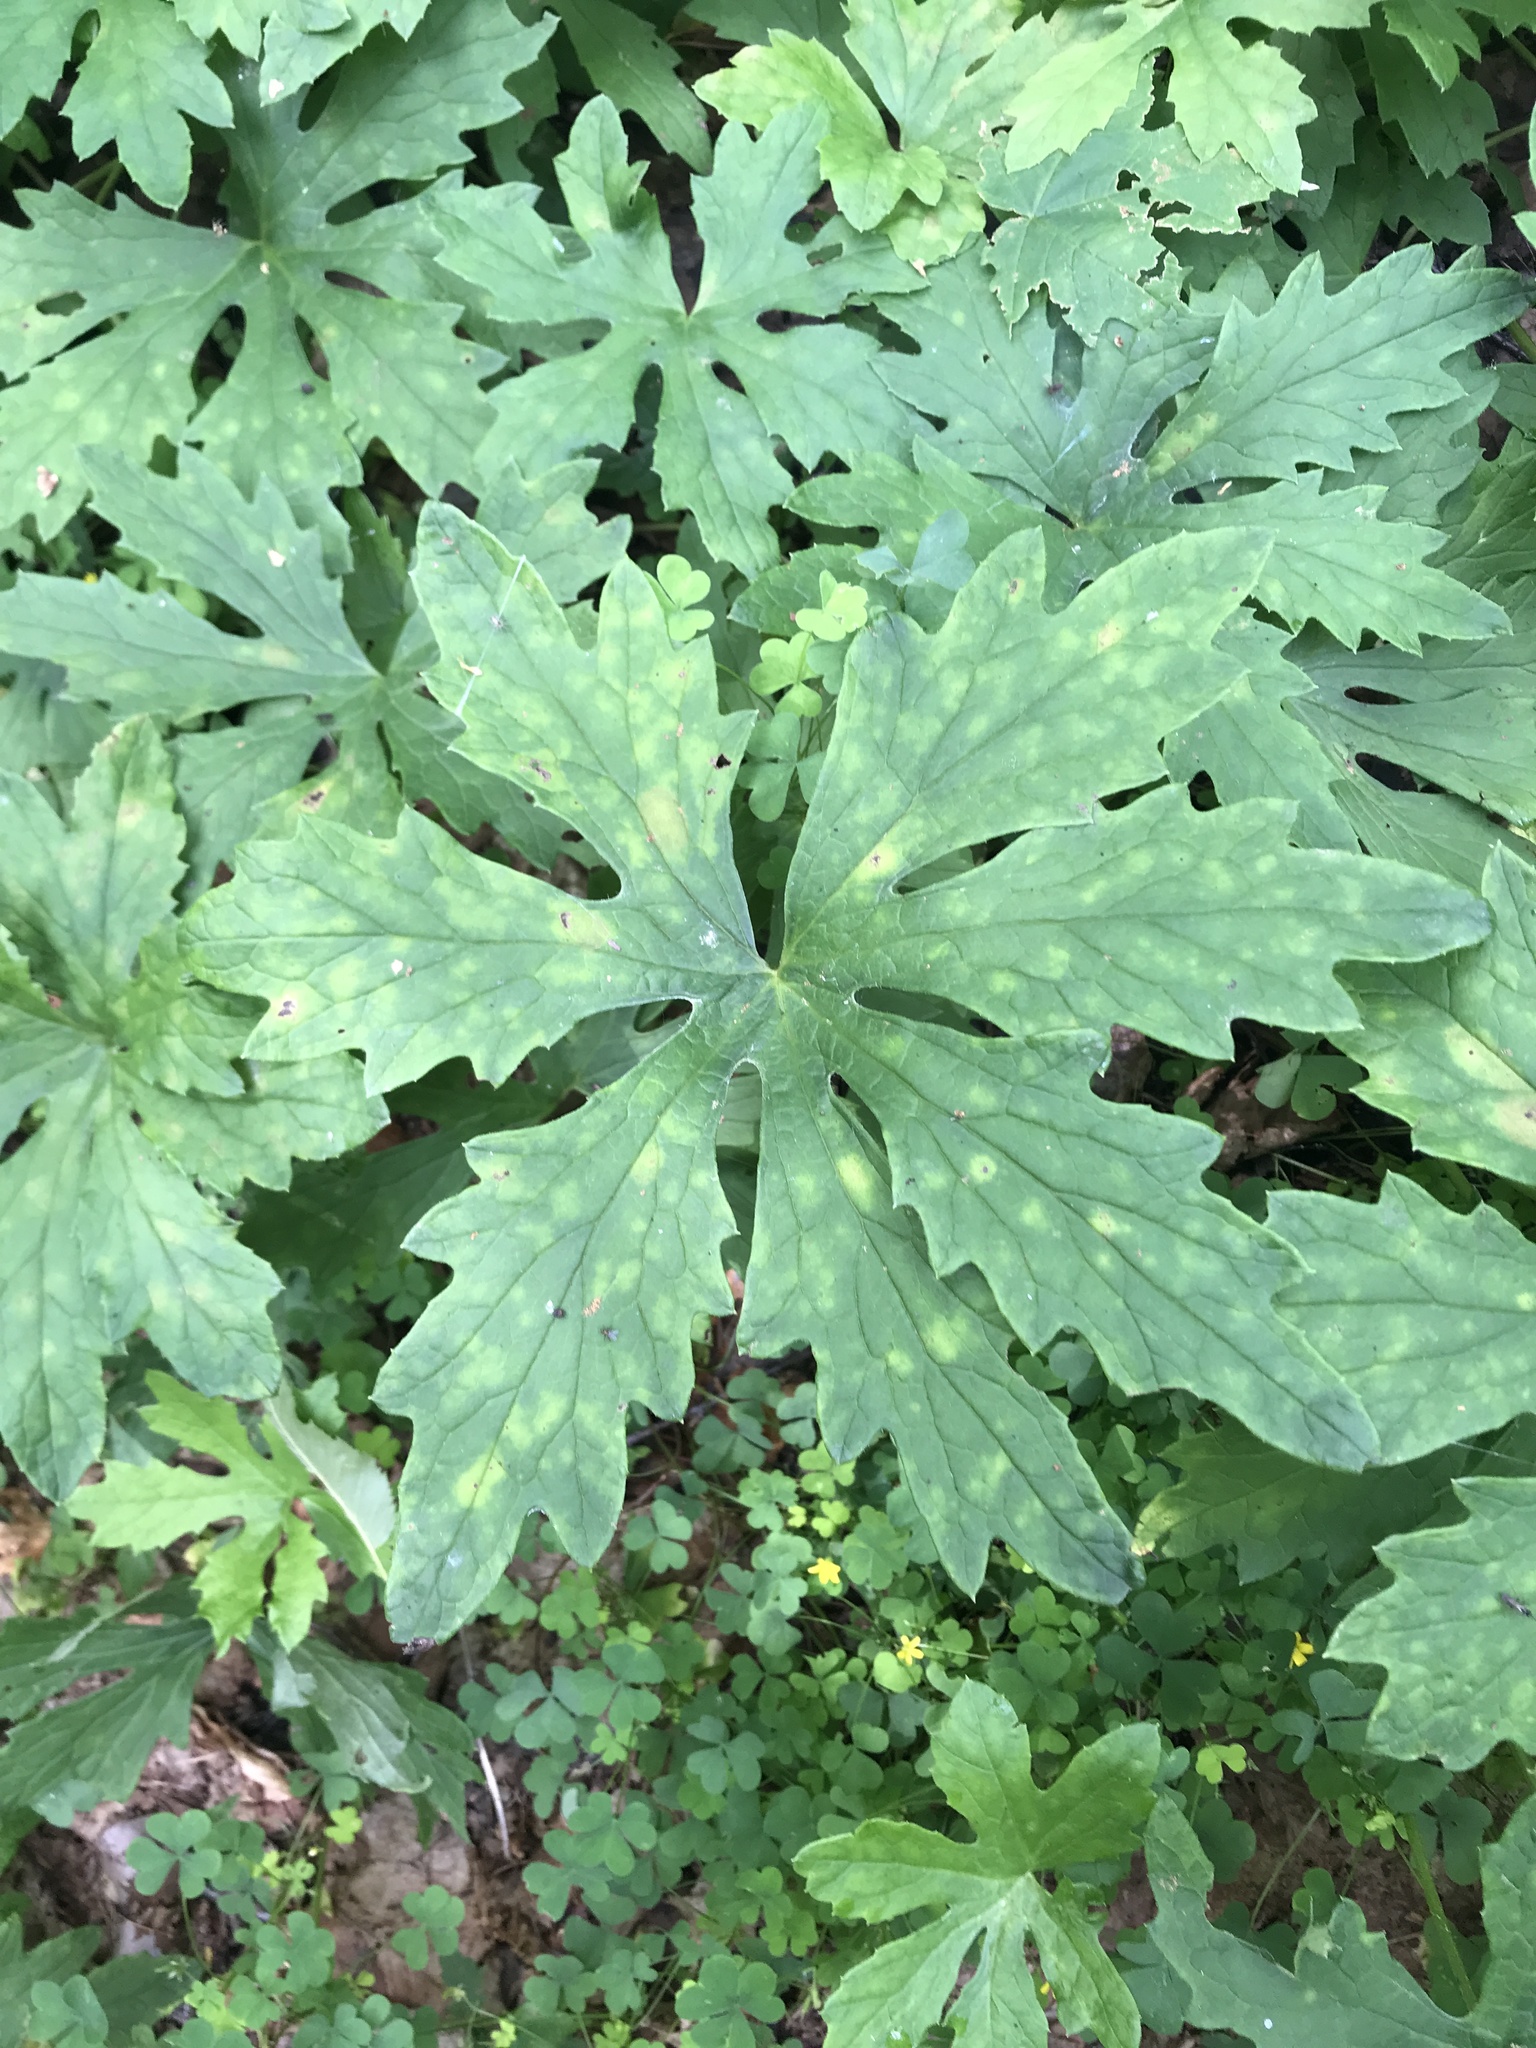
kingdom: Plantae
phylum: Tracheophyta
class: Magnoliopsida
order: Asterales
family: Asteraceae
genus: Petasites
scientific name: Petasites frigidus
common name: Arctic butterbur
